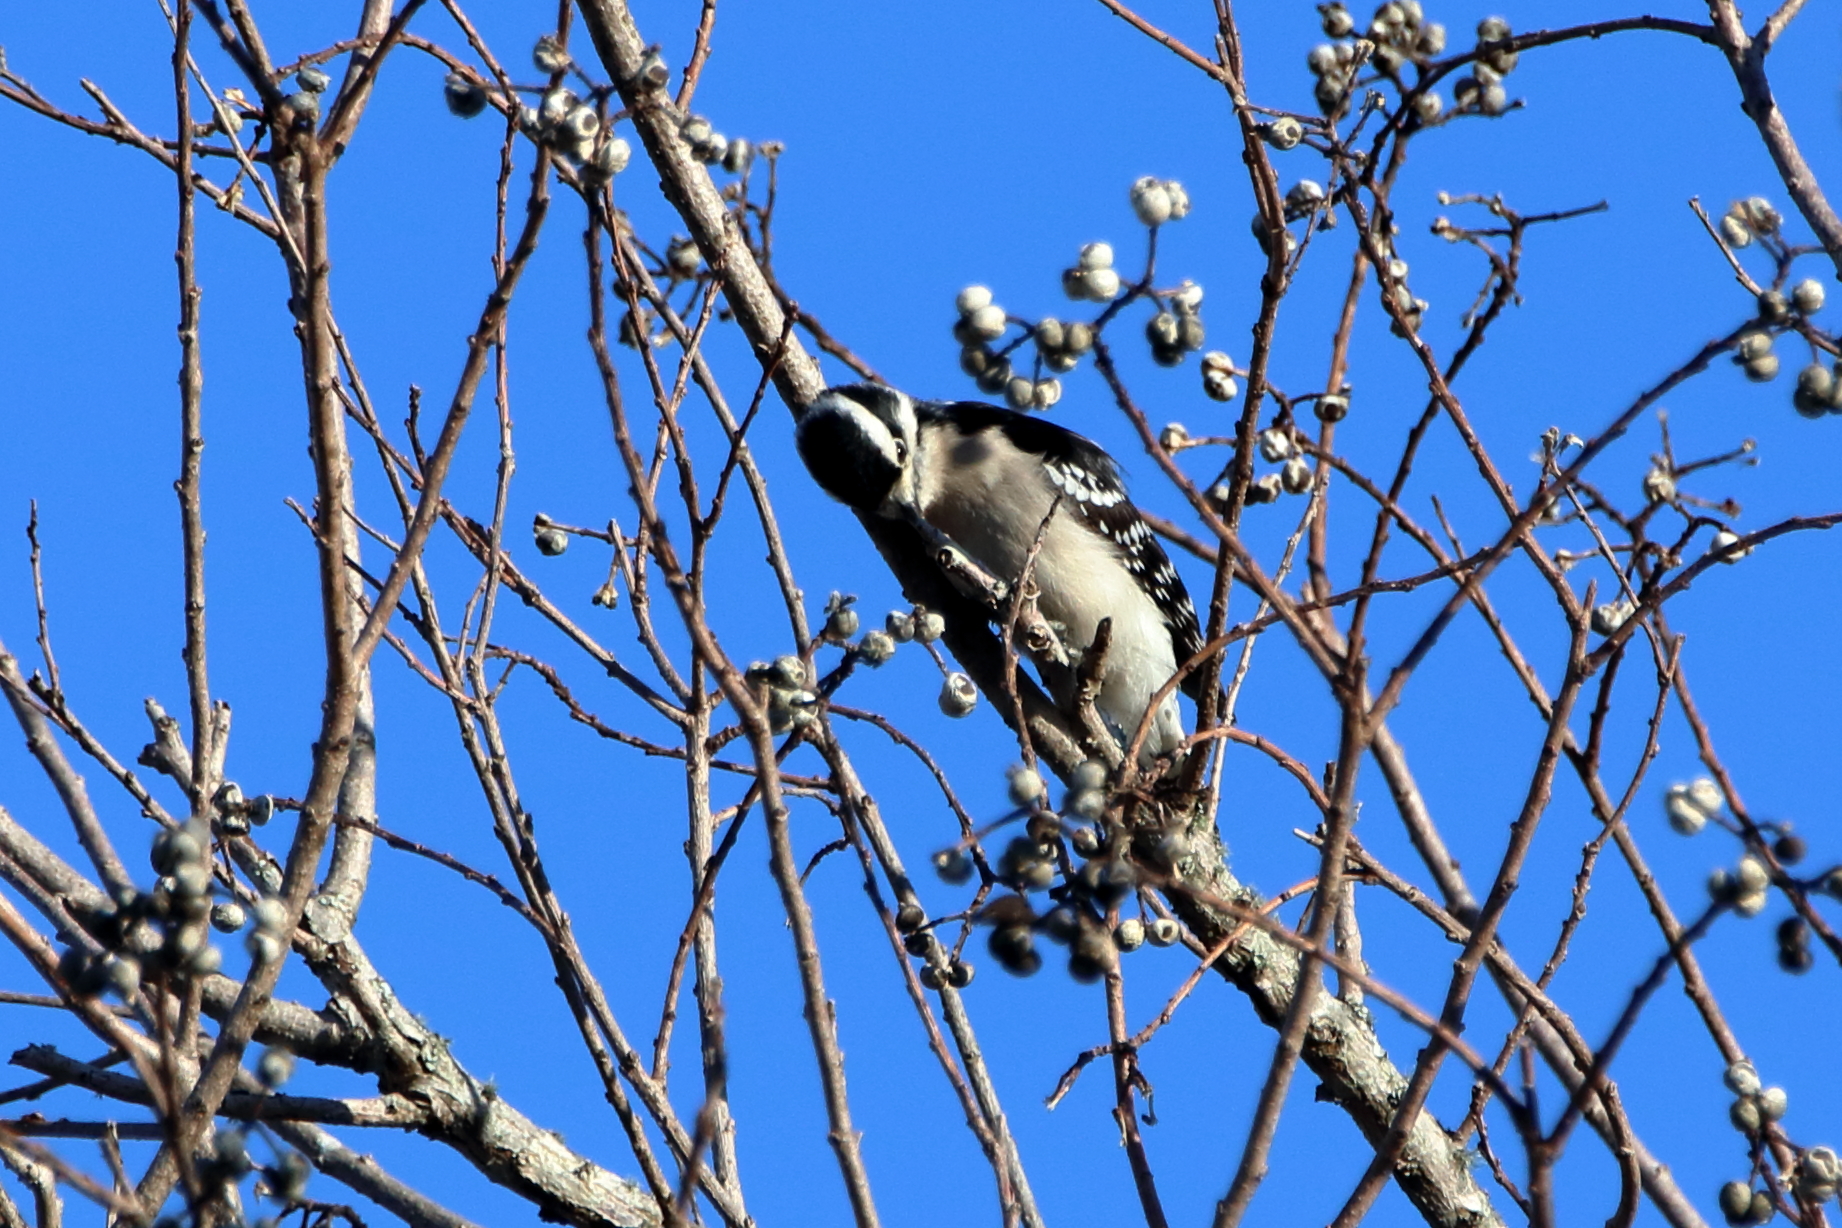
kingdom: Animalia
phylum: Chordata
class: Aves
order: Piciformes
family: Picidae
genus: Dryobates
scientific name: Dryobates pubescens
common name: Downy woodpecker
